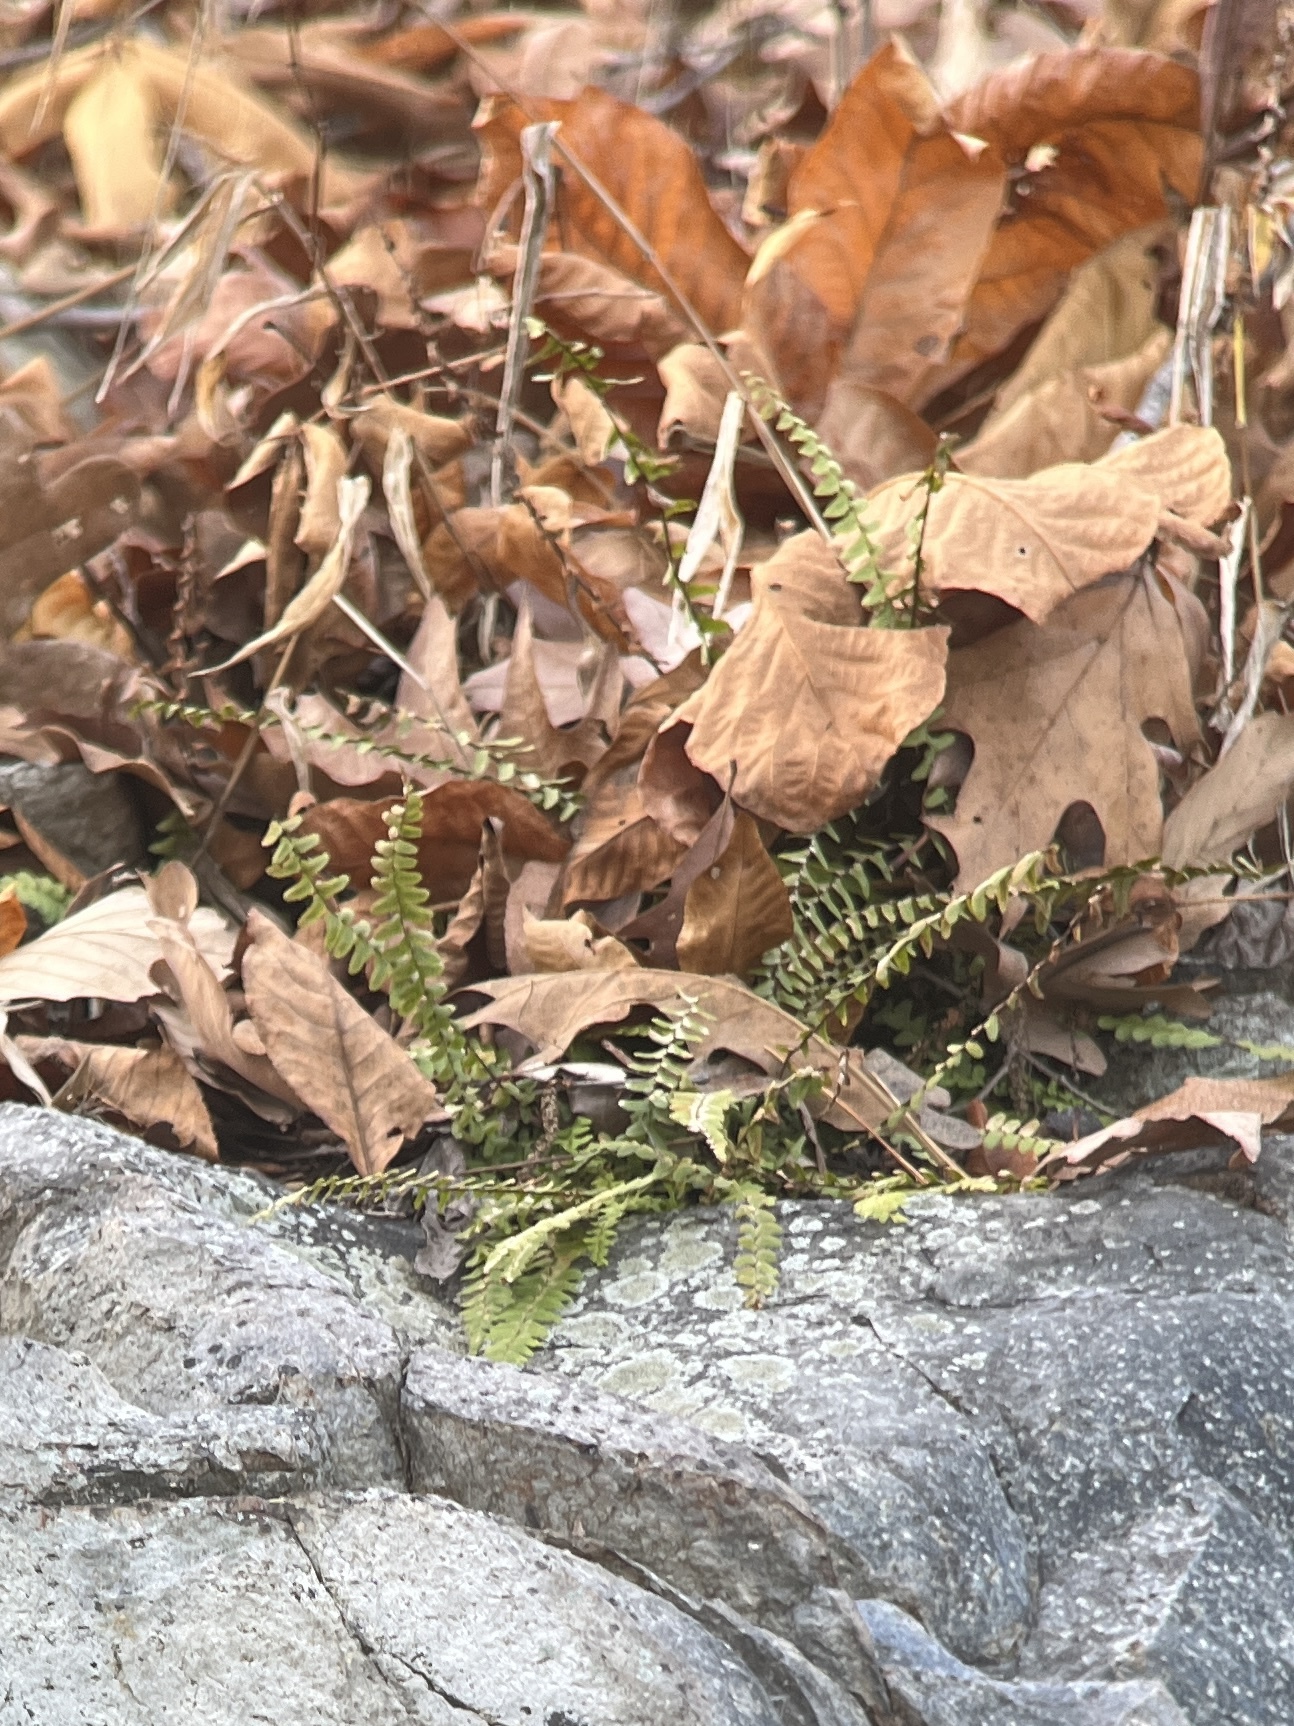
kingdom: Plantae
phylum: Tracheophyta
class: Polypodiopsida
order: Polypodiales
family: Aspleniaceae
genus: Asplenium
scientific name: Asplenium platyneuron
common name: Ebony spleenwort
